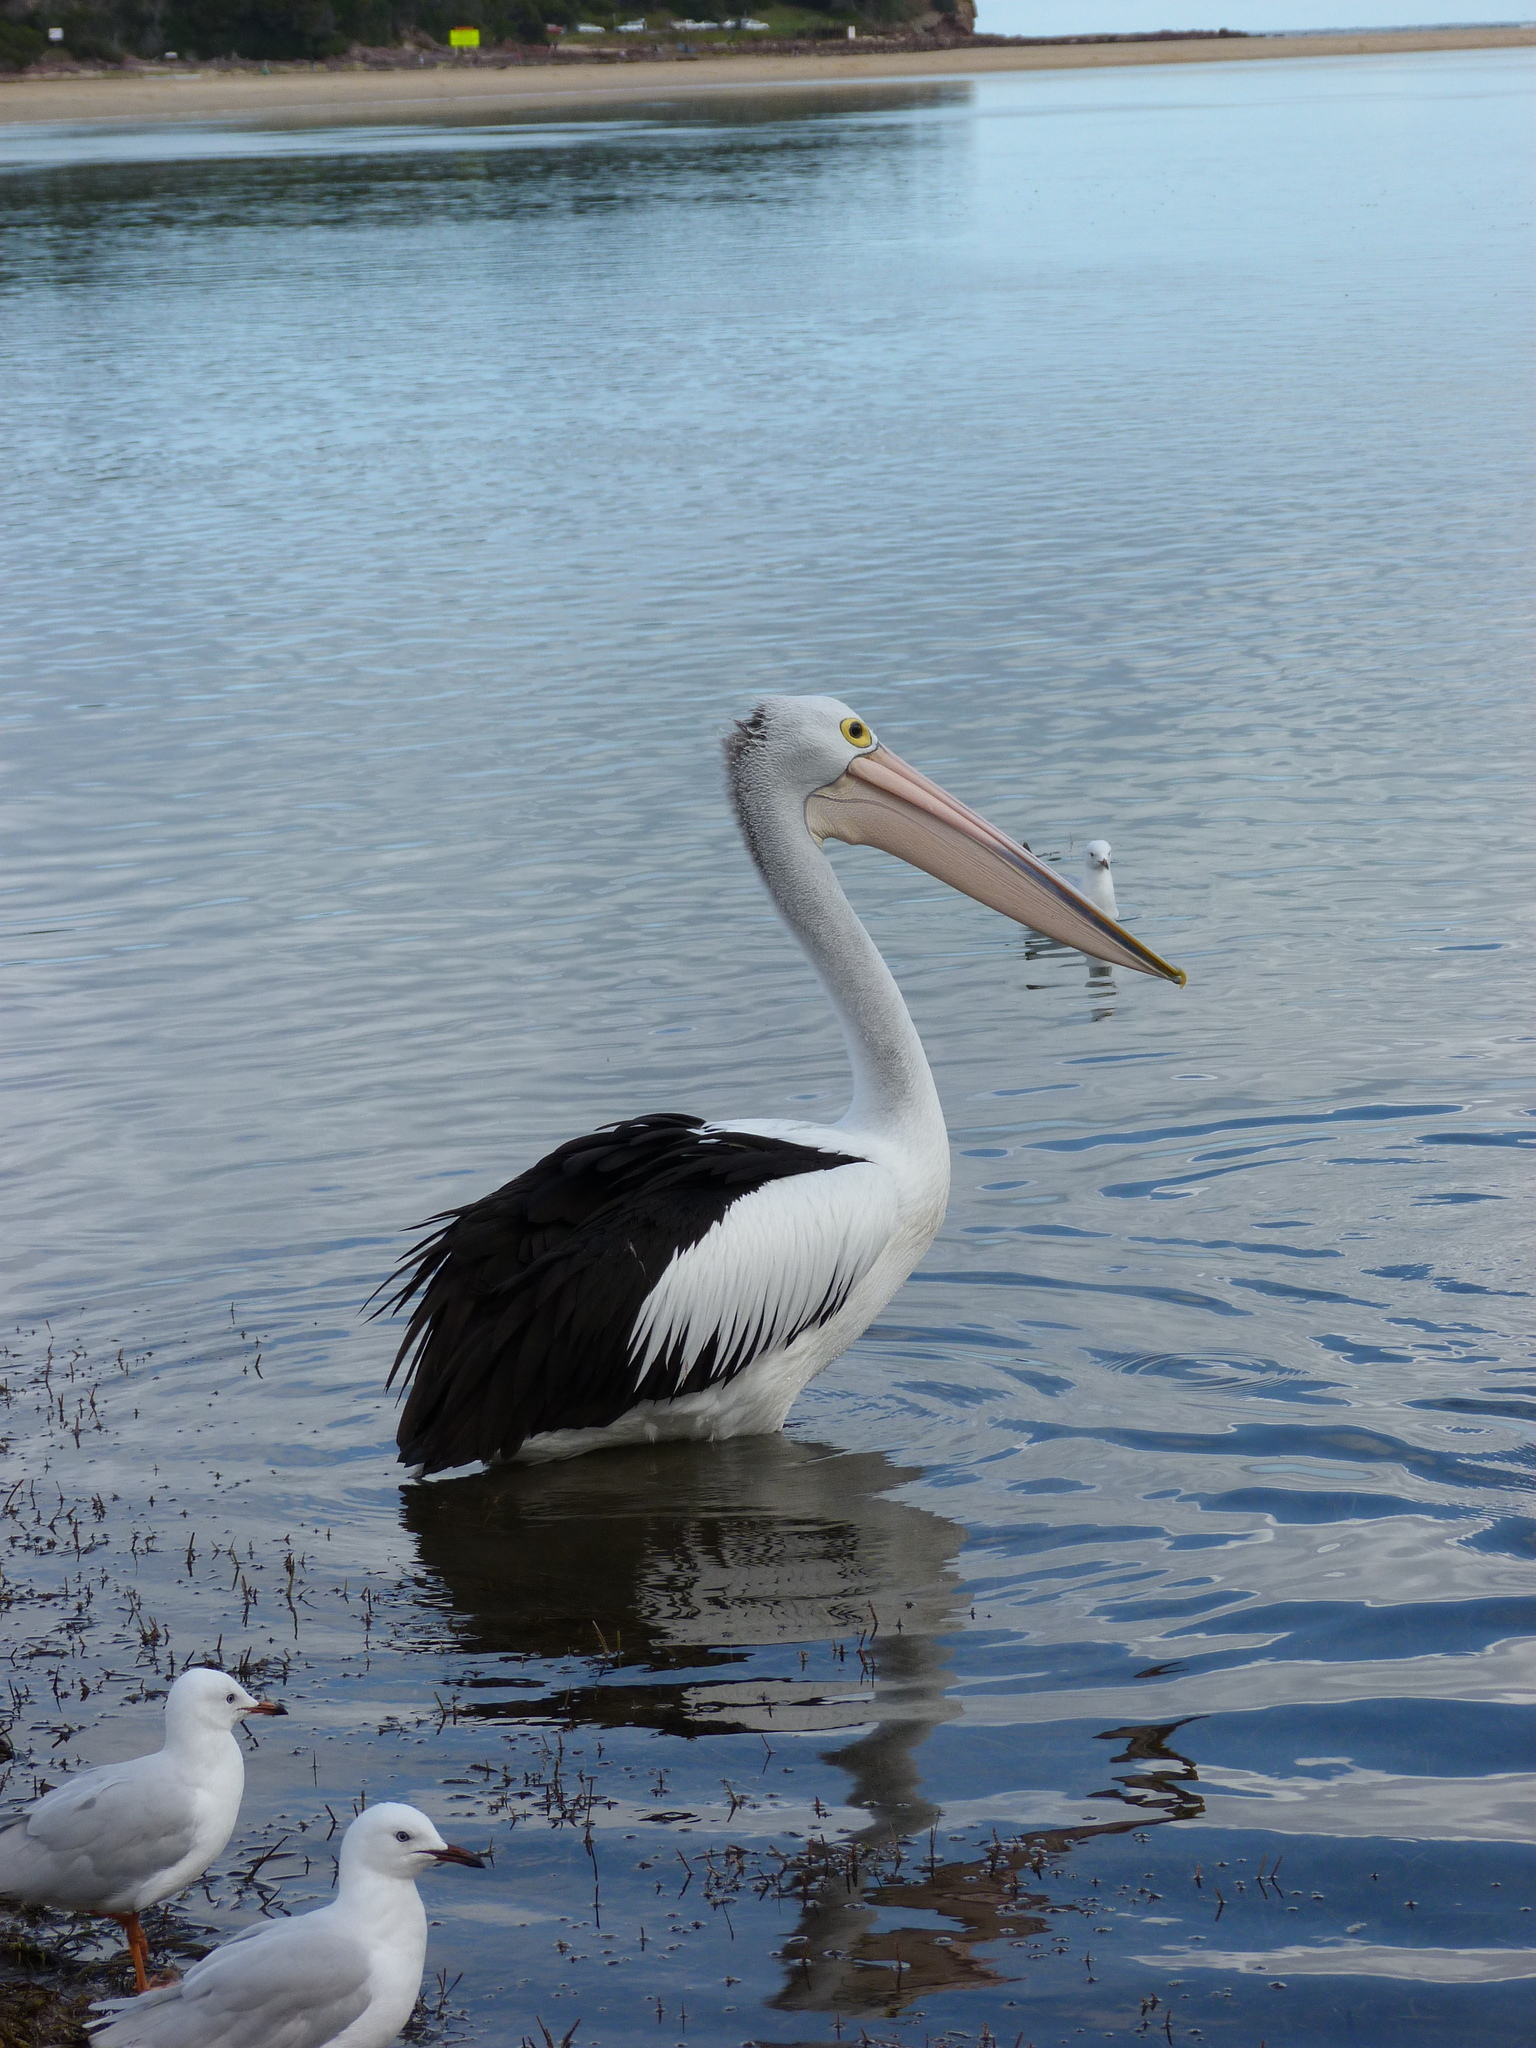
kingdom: Animalia
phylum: Chordata
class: Aves
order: Pelecaniformes
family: Pelecanidae
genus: Pelecanus
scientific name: Pelecanus conspicillatus
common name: Australian pelican
